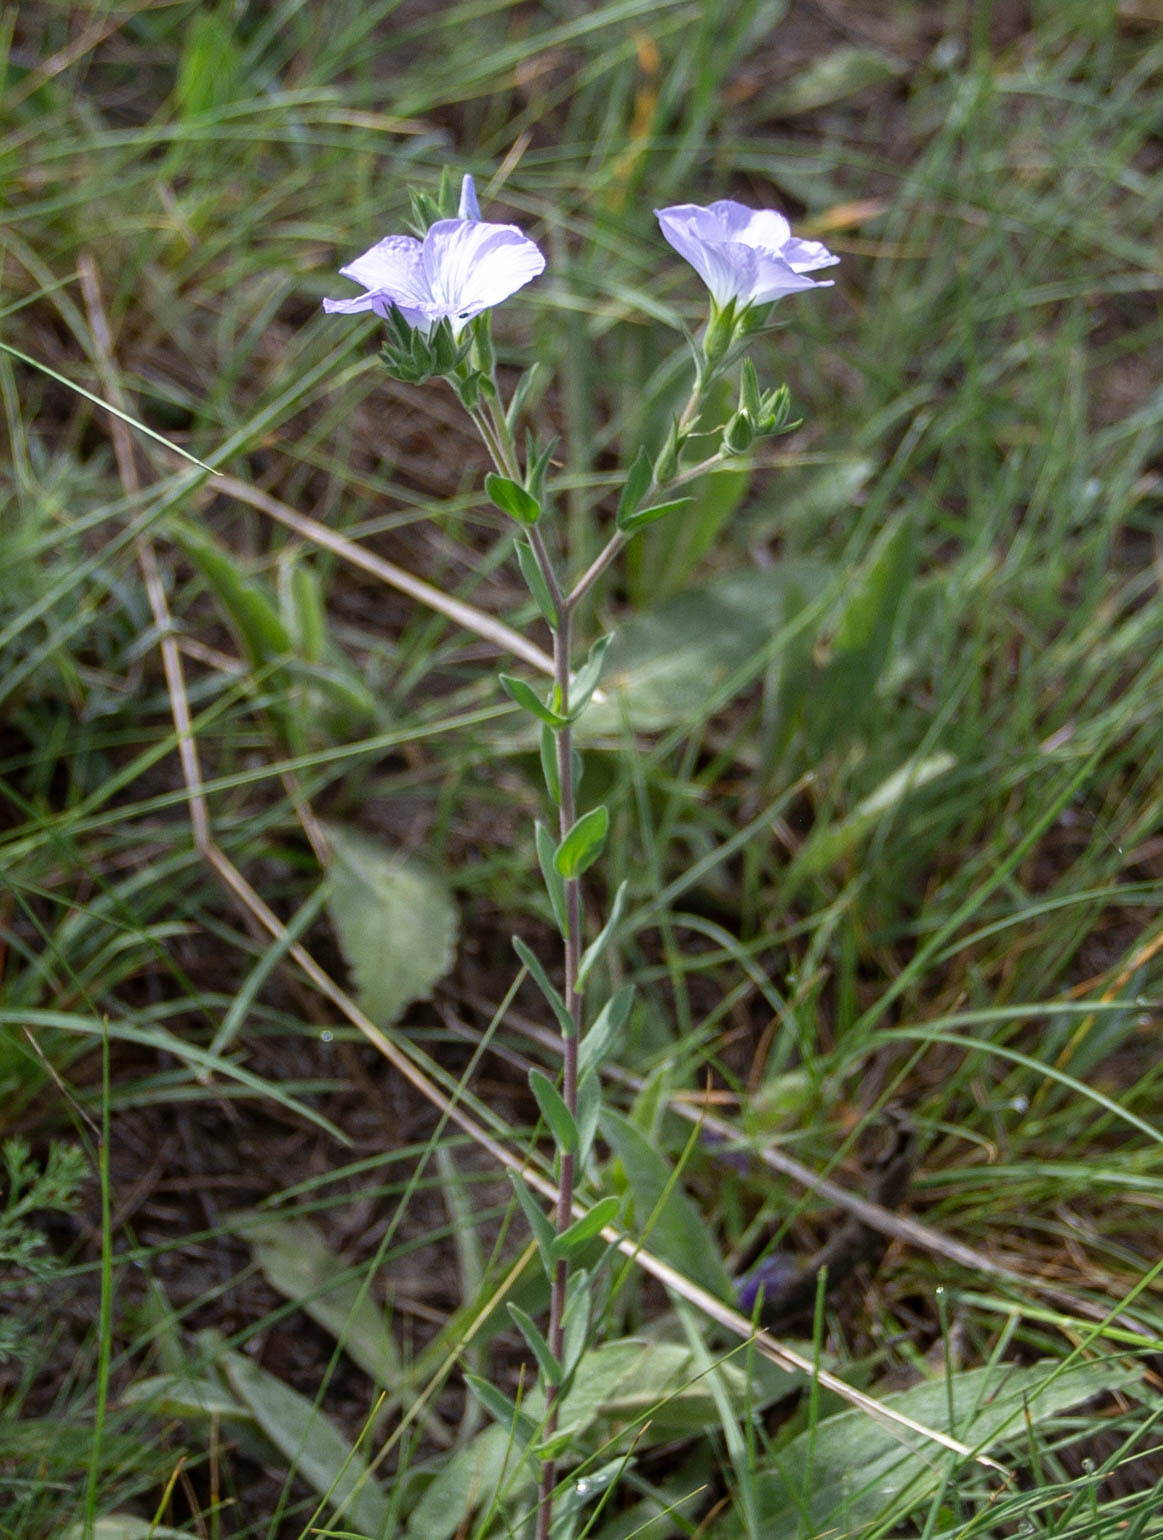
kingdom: Plantae
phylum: Tracheophyta
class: Magnoliopsida
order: Malpighiales
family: Linaceae
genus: Linum
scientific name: Linum hirsutum
